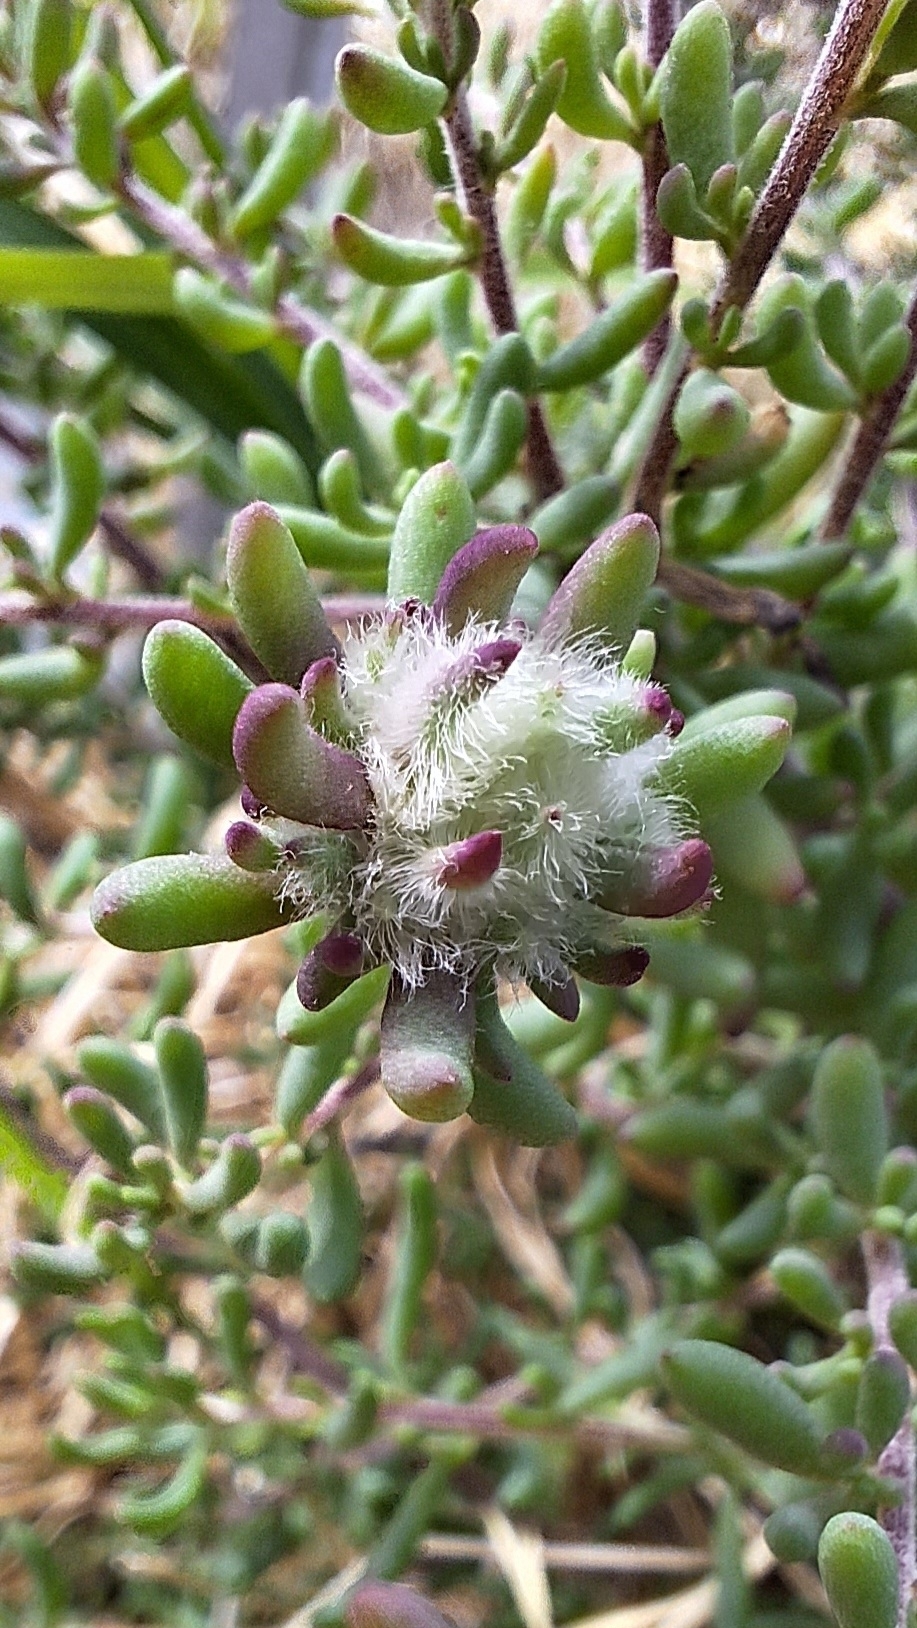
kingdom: Animalia
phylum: Arthropoda
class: Insecta
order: Diptera
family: Cecidomyiidae
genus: Dactylasioptera
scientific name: Dactylasioptera milnae
